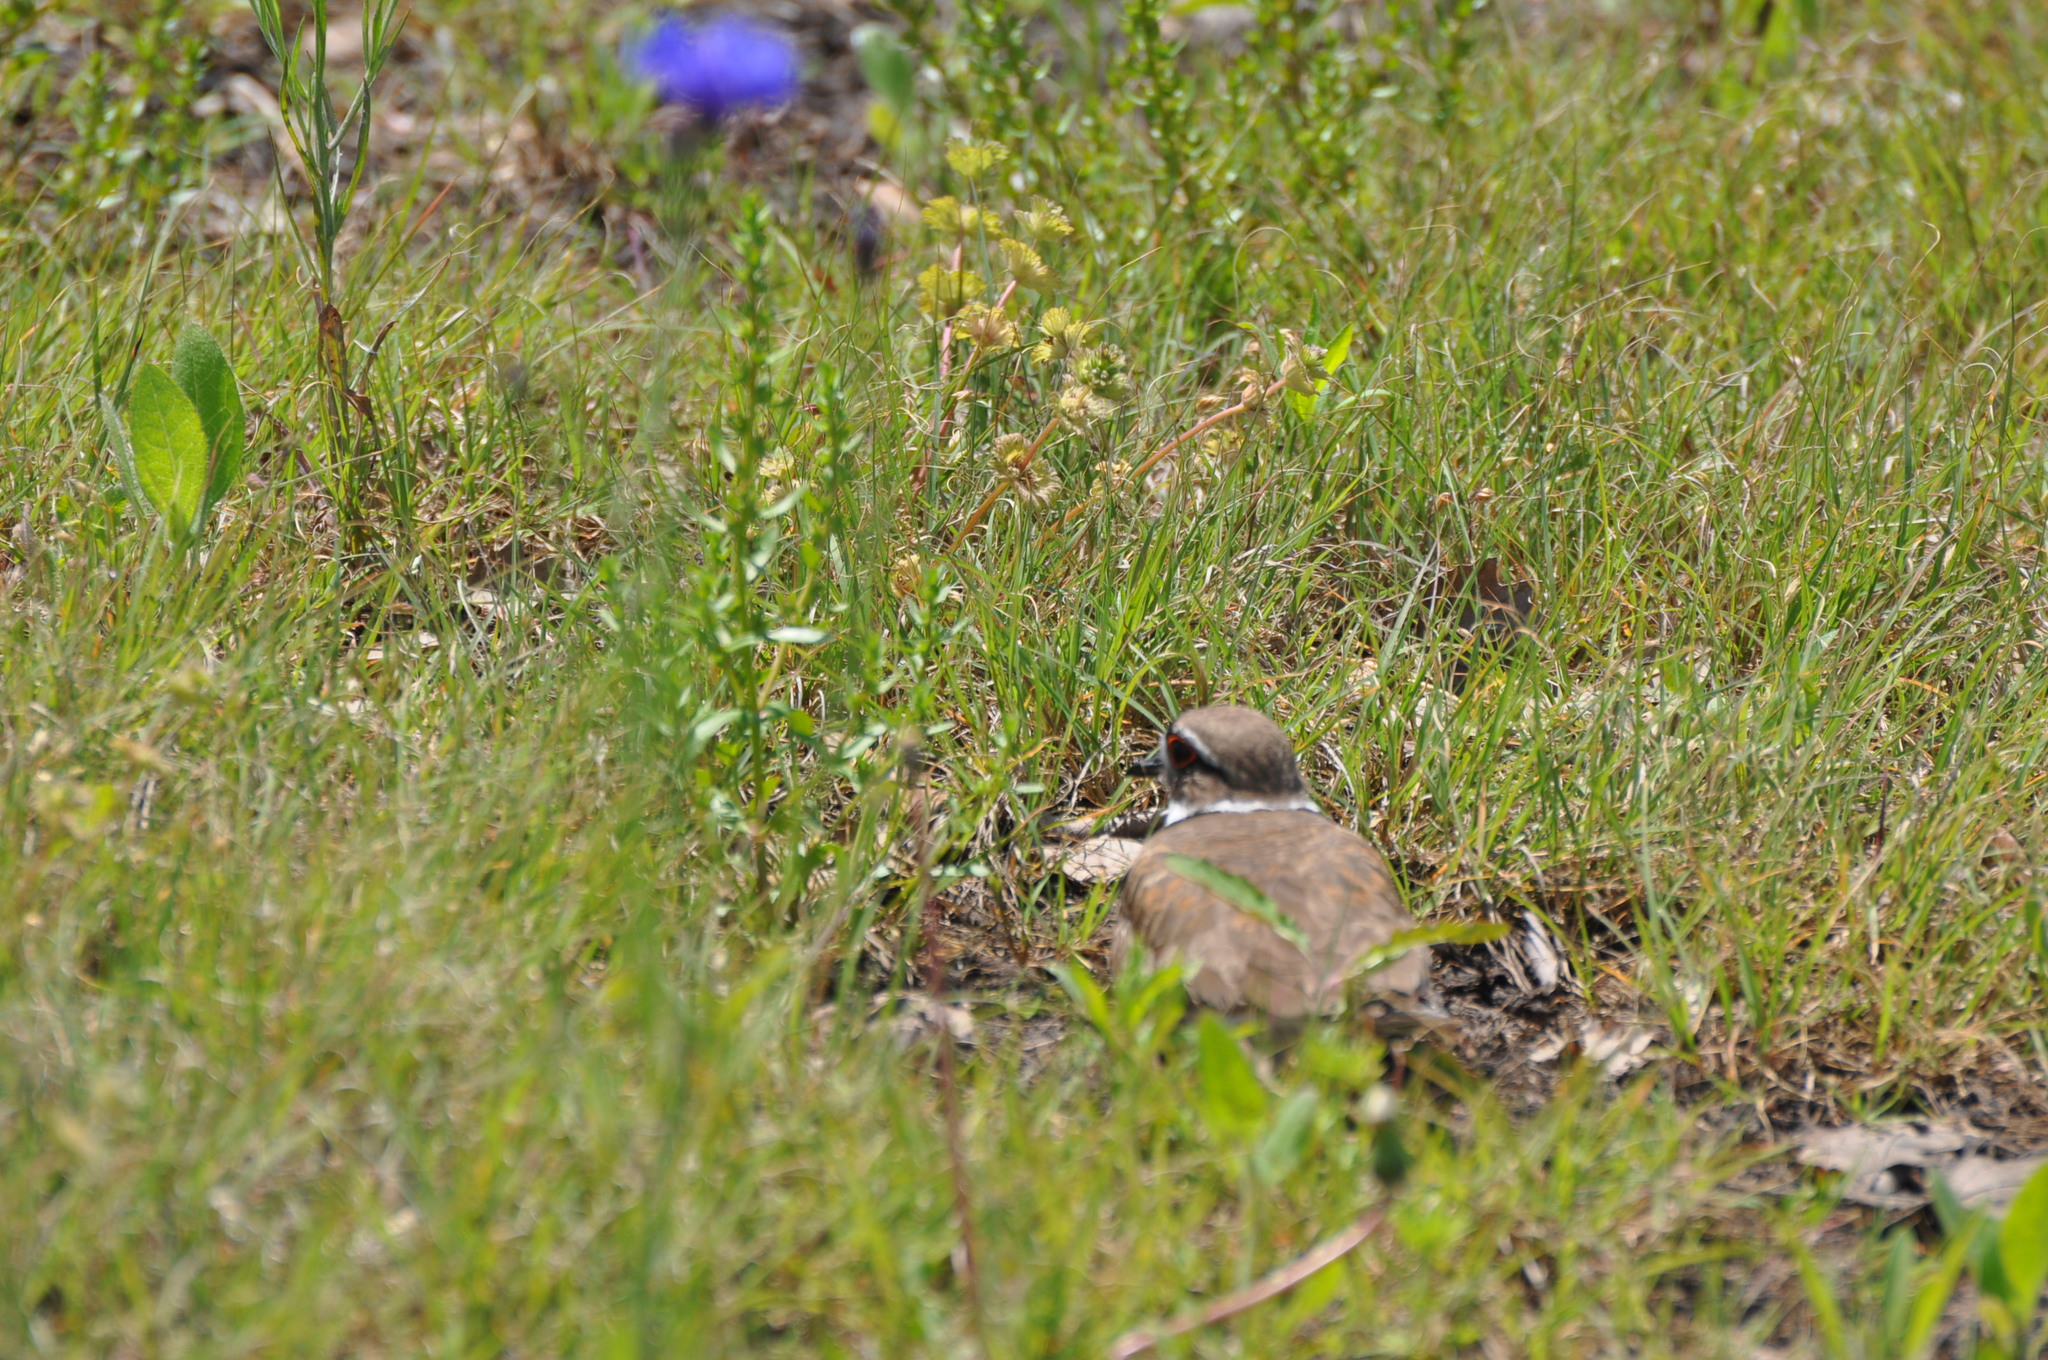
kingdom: Animalia
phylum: Chordata
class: Aves
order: Charadriiformes
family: Charadriidae
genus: Charadrius
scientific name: Charadrius vociferus
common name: Killdeer
